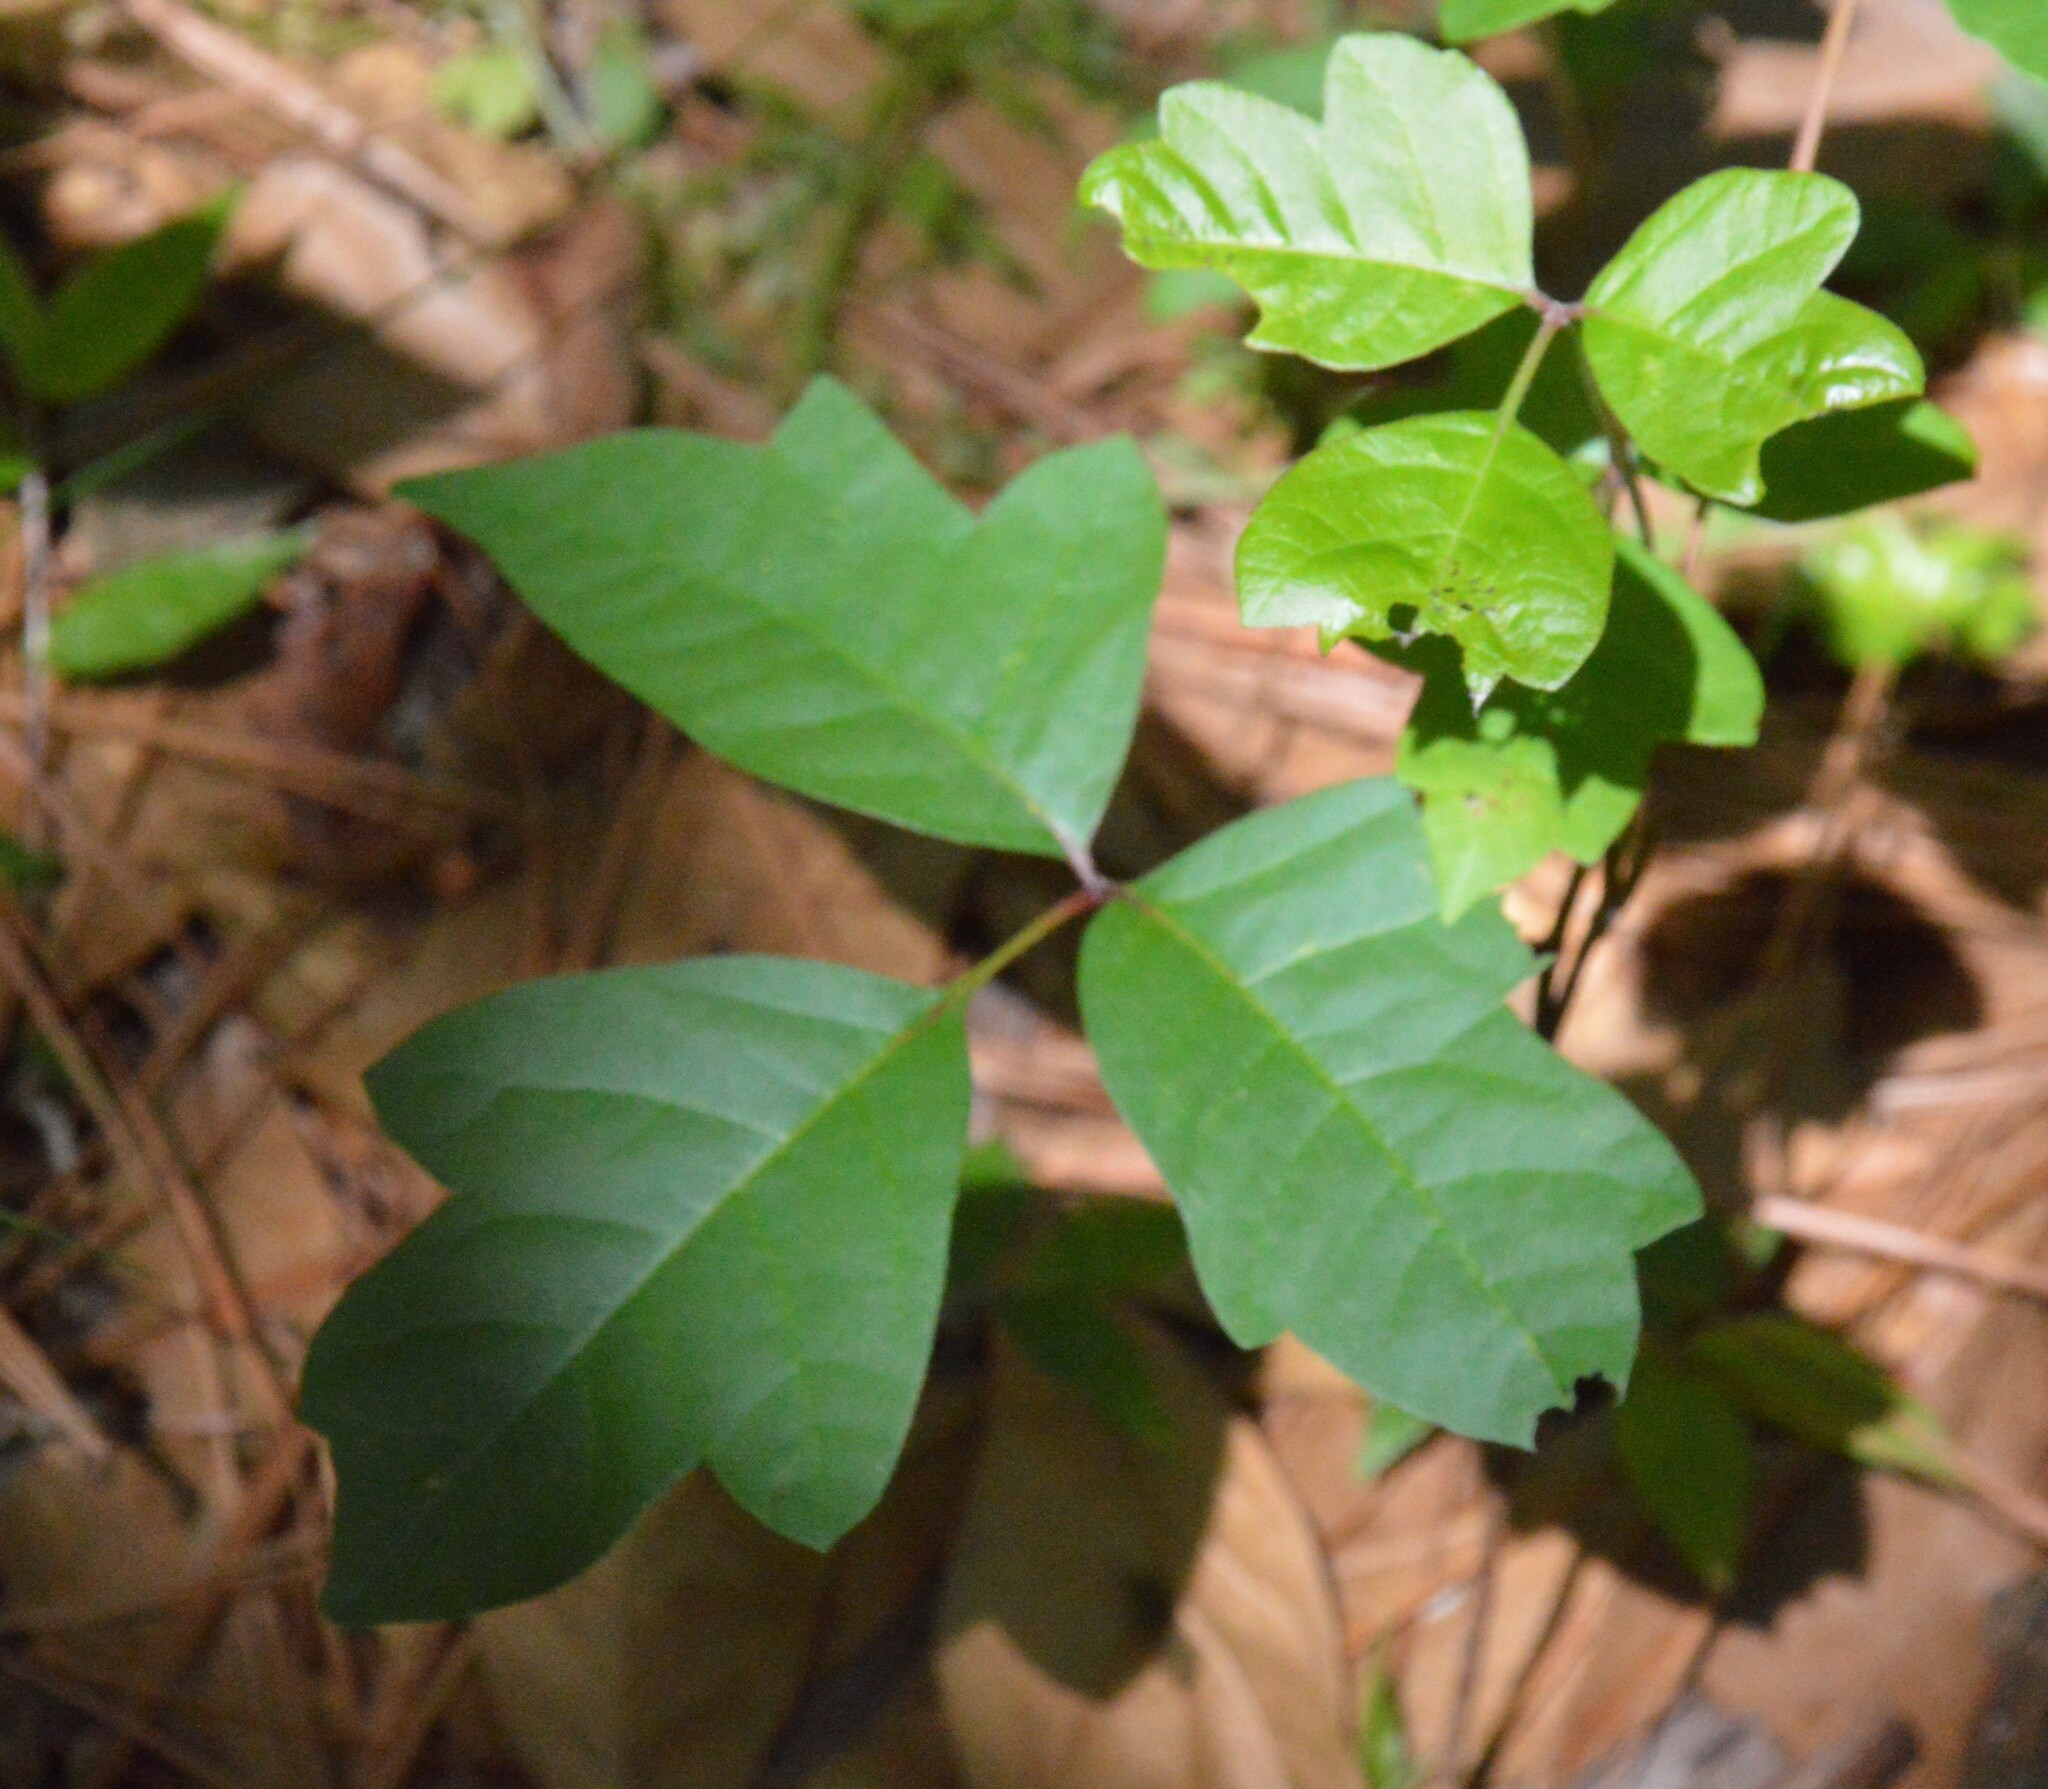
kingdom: Plantae
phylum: Tracheophyta
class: Magnoliopsida
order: Sapindales
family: Anacardiaceae
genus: Toxicodendron
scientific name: Toxicodendron radicans
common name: Poison ivy
